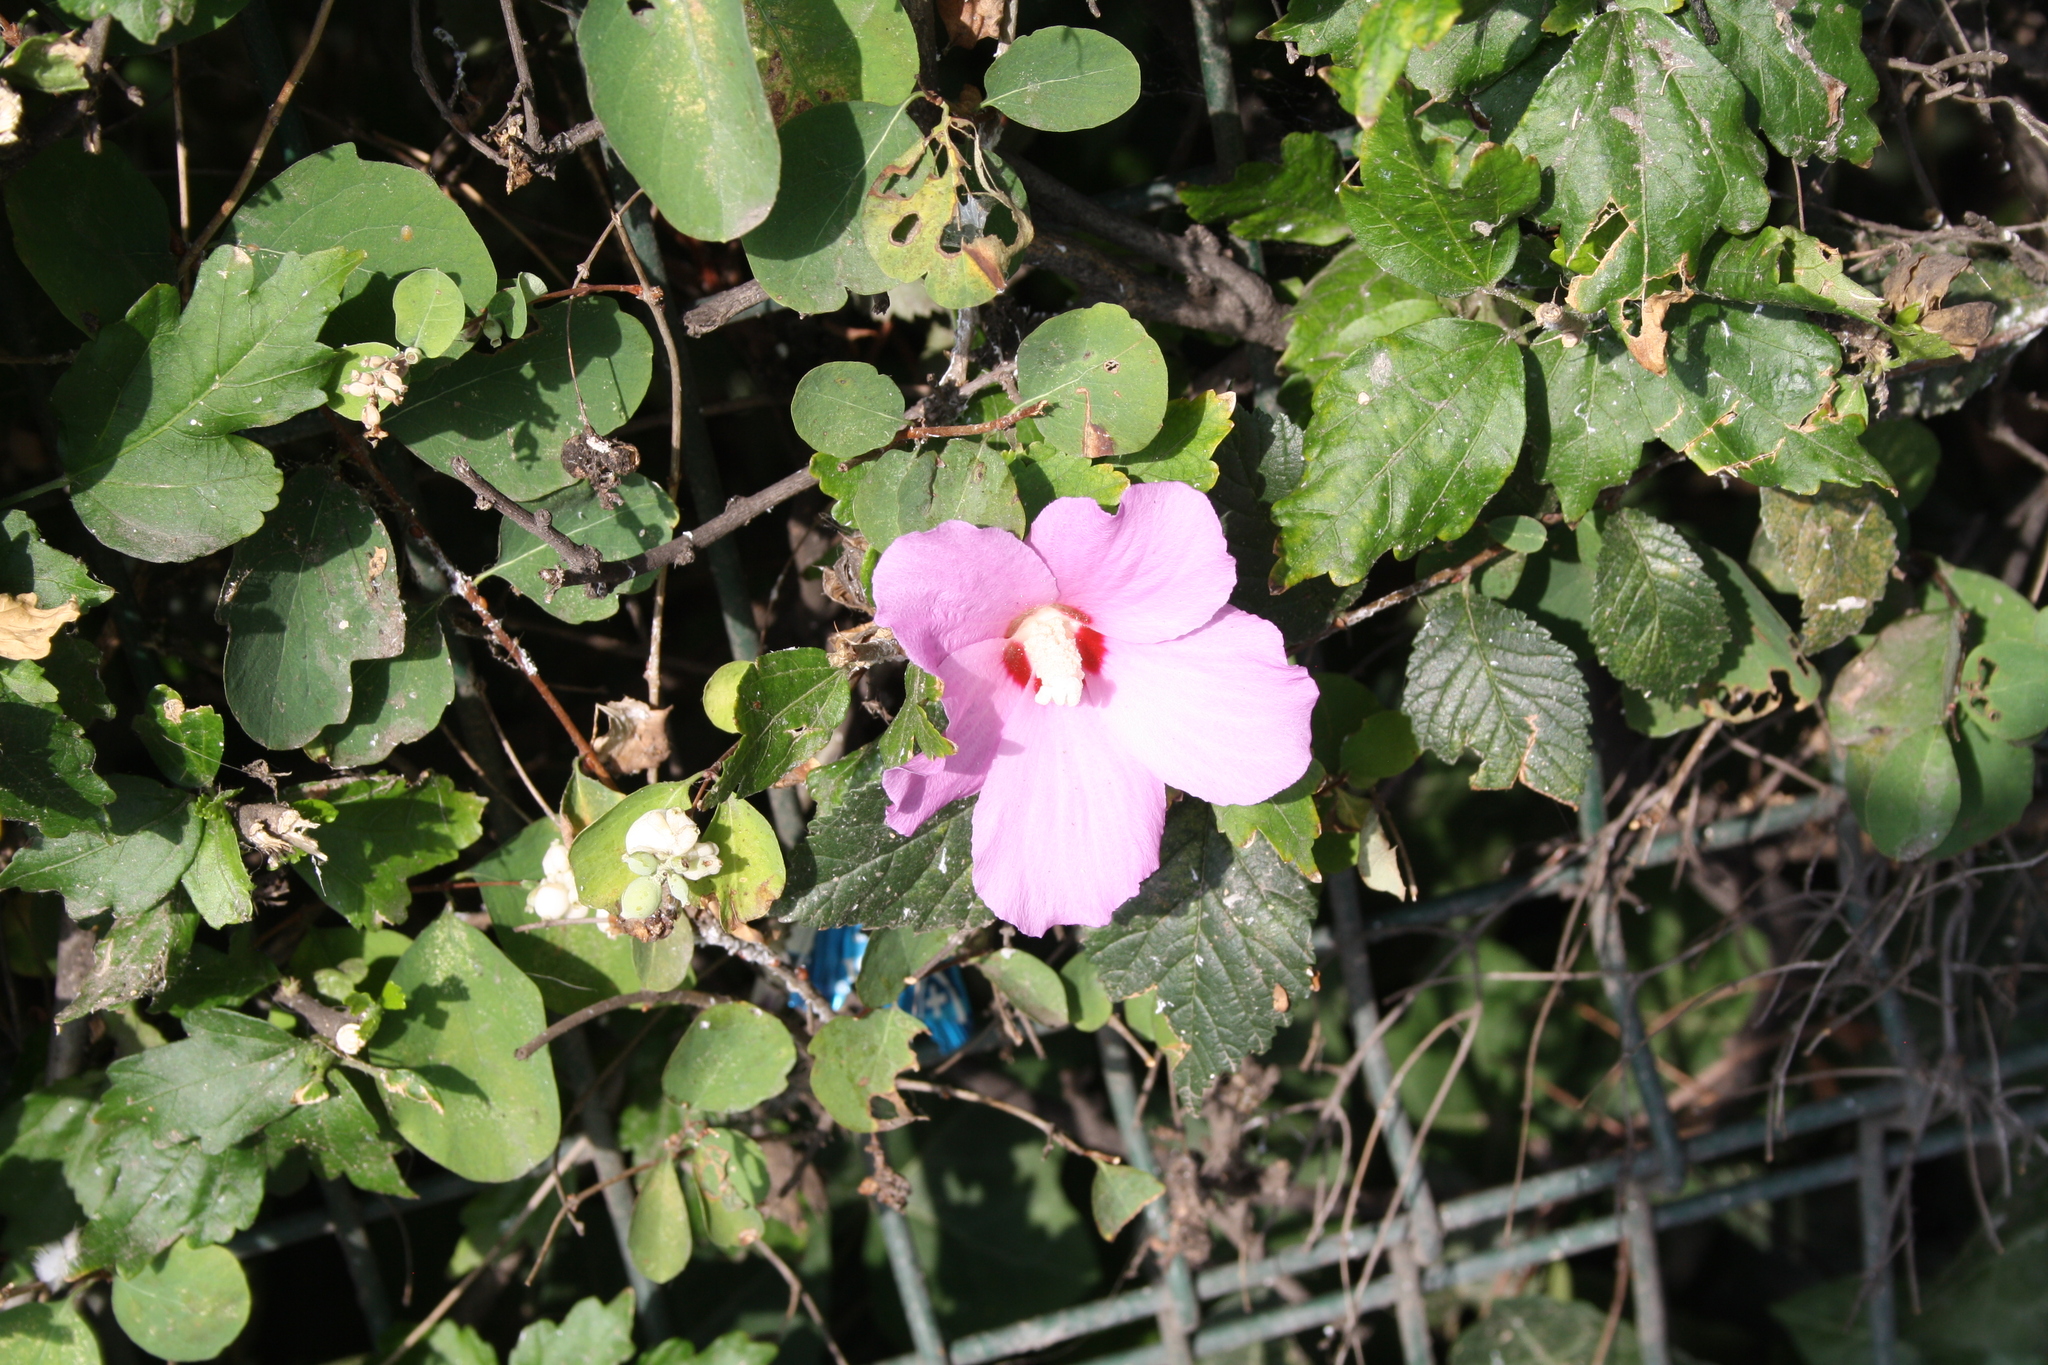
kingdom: Plantae
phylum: Tracheophyta
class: Magnoliopsida
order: Malvales
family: Malvaceae
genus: Hibiscus
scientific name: Hibiscus syriacus
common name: Syrian ketmia
